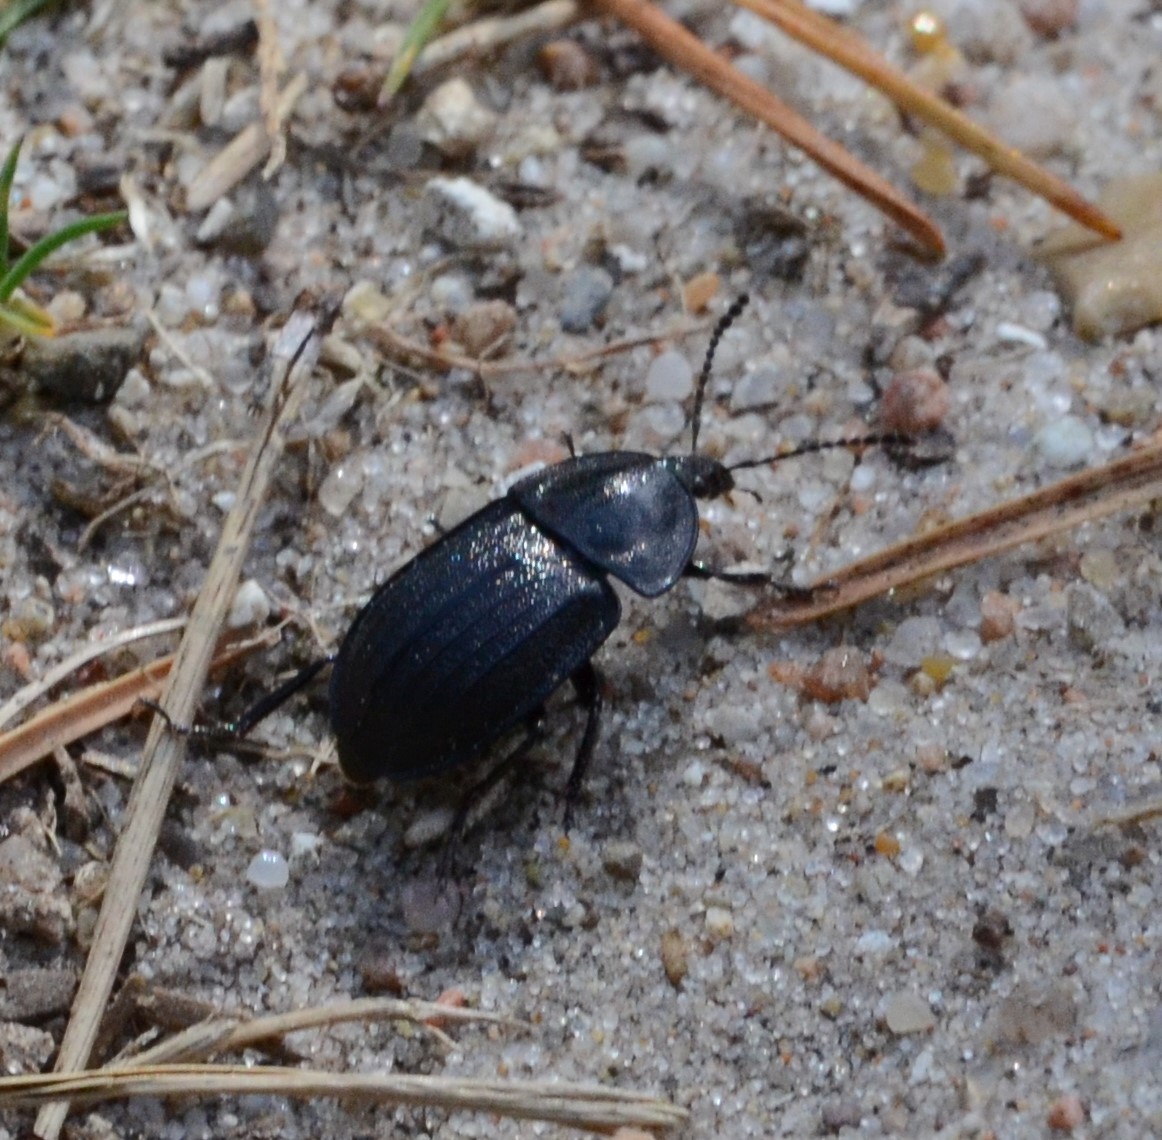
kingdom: Animalia
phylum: Arthropoda
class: Insecta
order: Coleoptera
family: Staphylinidae
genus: Silpha
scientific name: Silpha atrata
